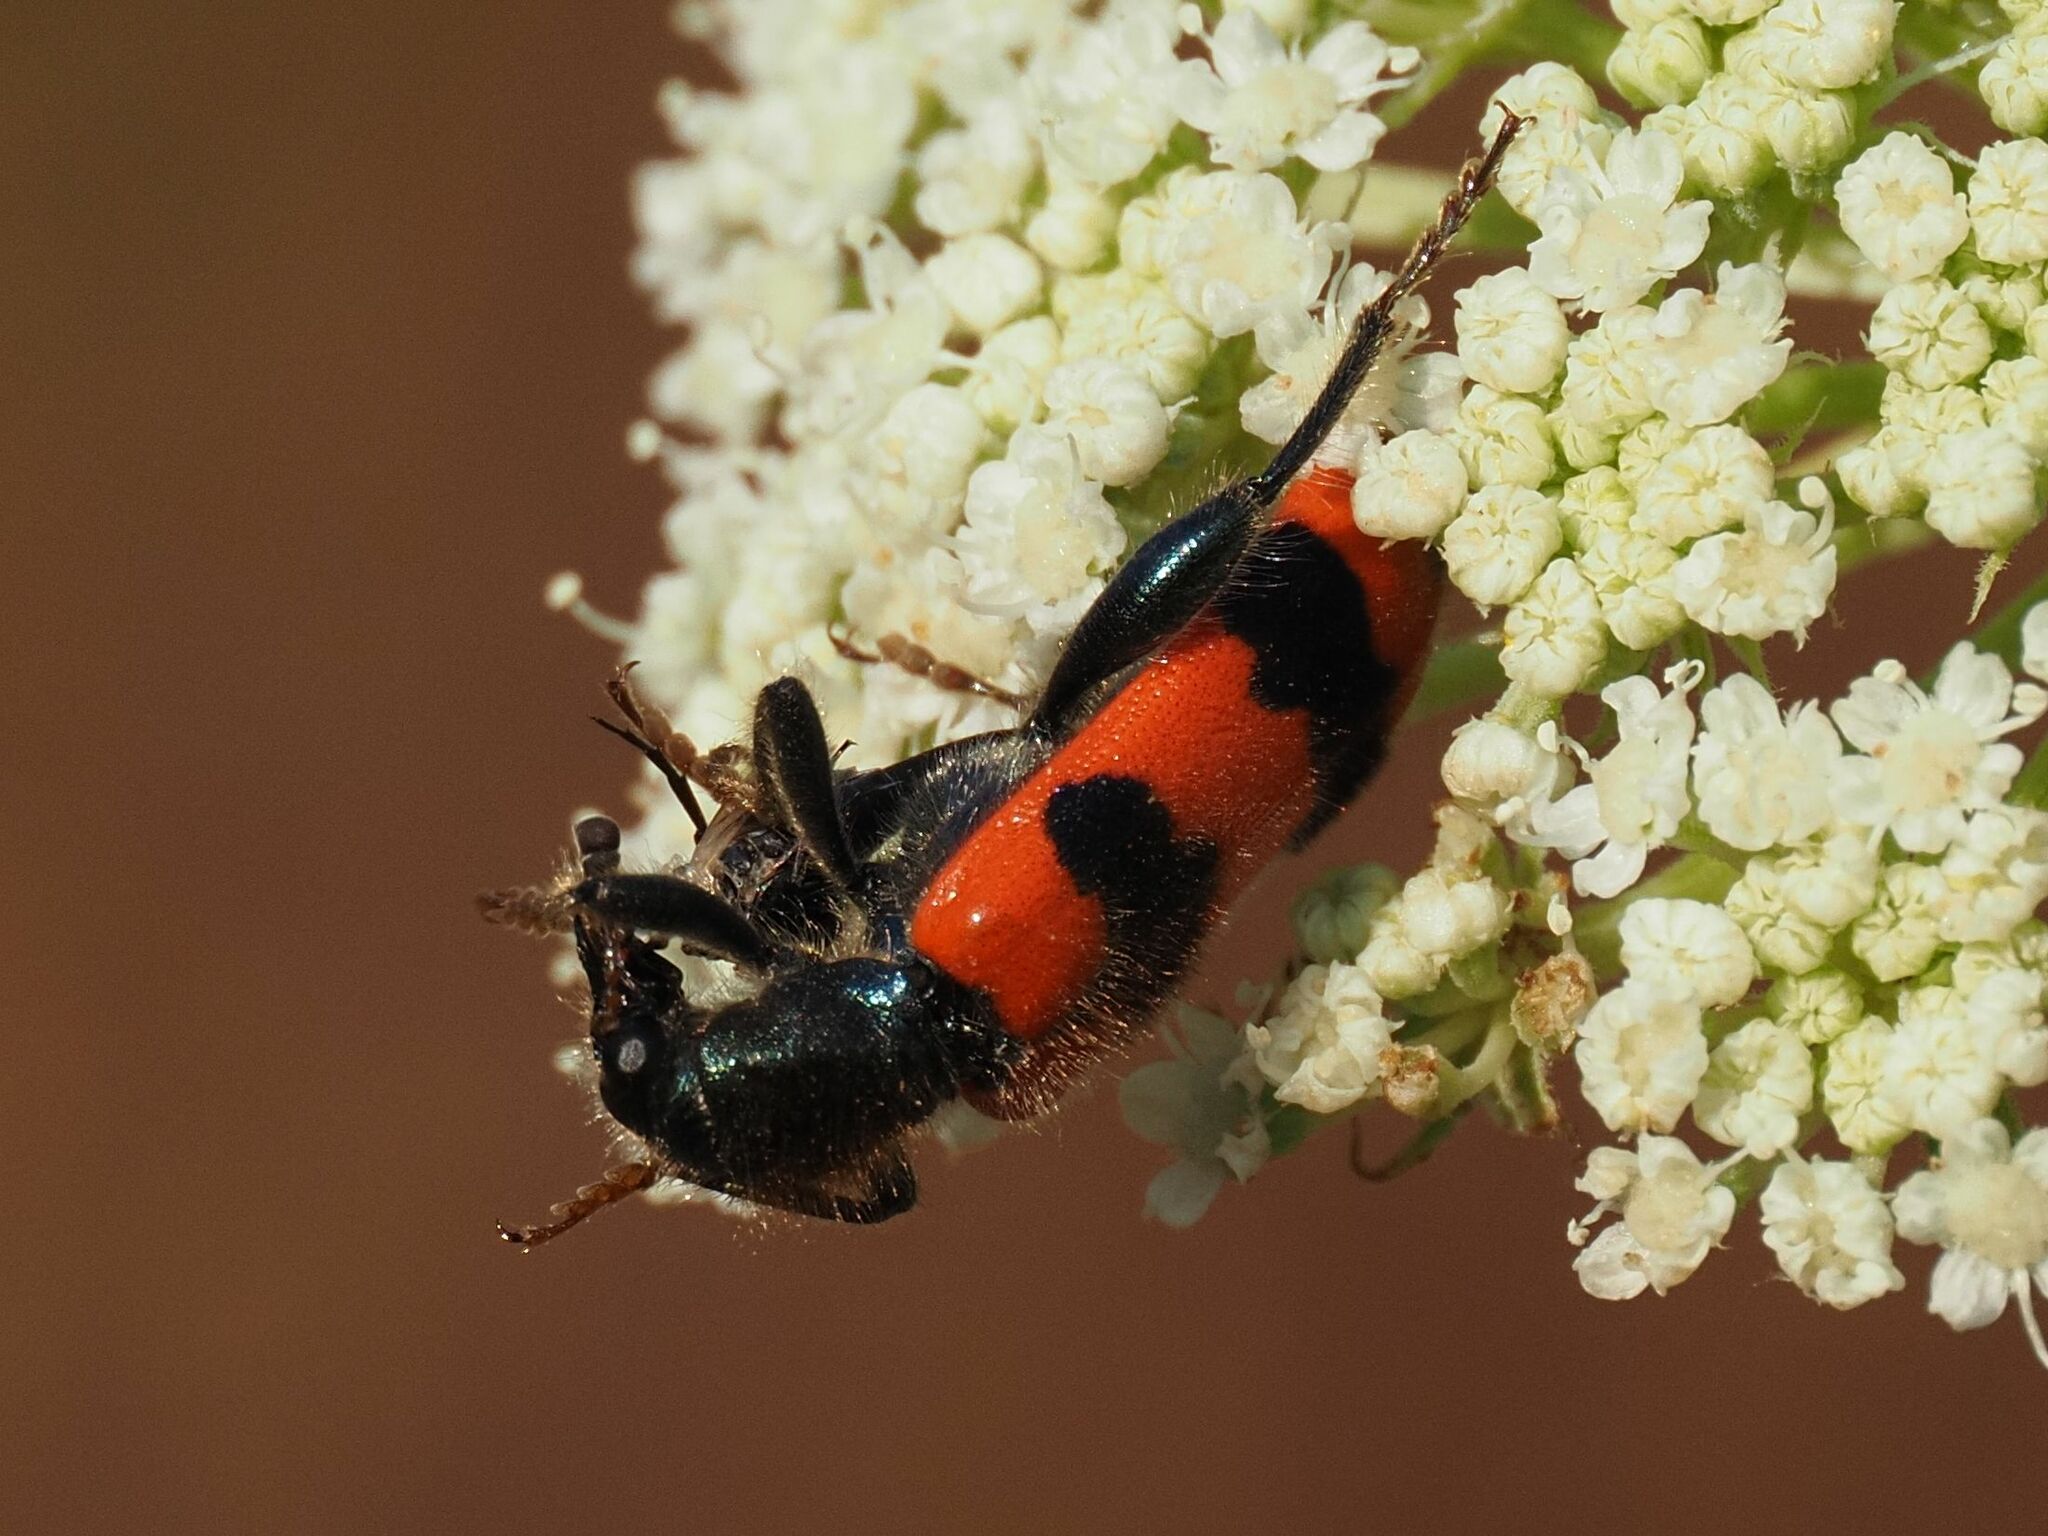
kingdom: Animalia
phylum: Arthropoda
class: Insecta
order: Coleoptera
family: Cleridae
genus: Trichodes
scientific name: Trichodes apiarius
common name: Bee-eating beetle
